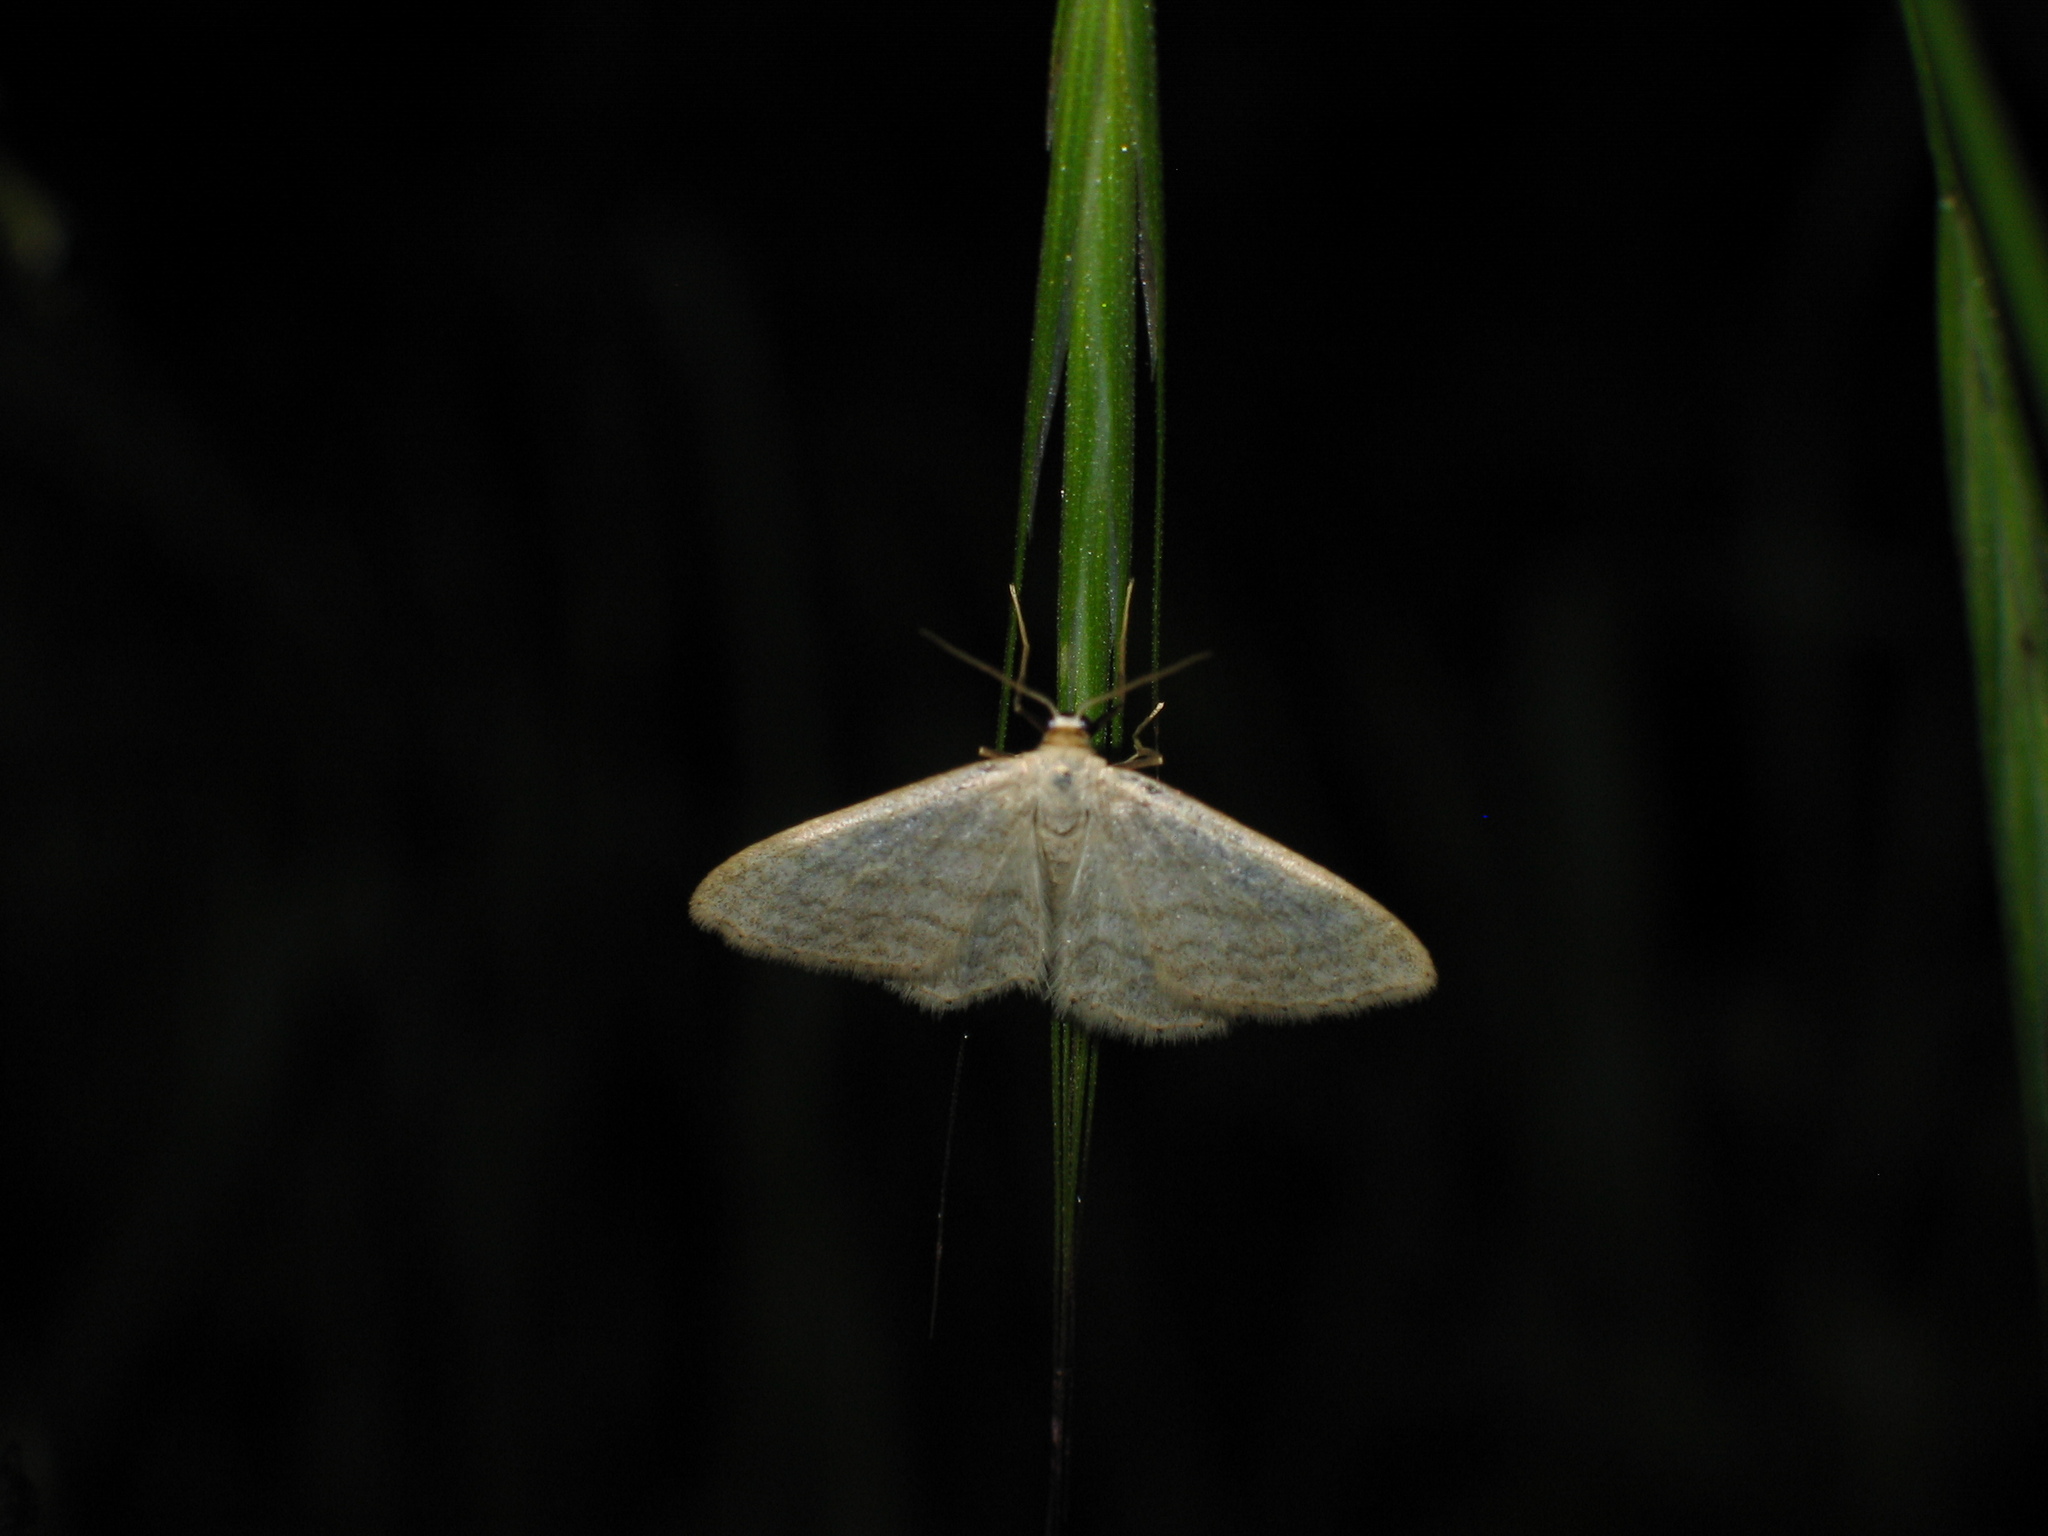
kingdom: Animalia
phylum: Arthropoda
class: Insecta
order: Lepidoptera
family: Geometridae
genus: Idaea
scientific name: Idaea subsericeata
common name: Satin wave
